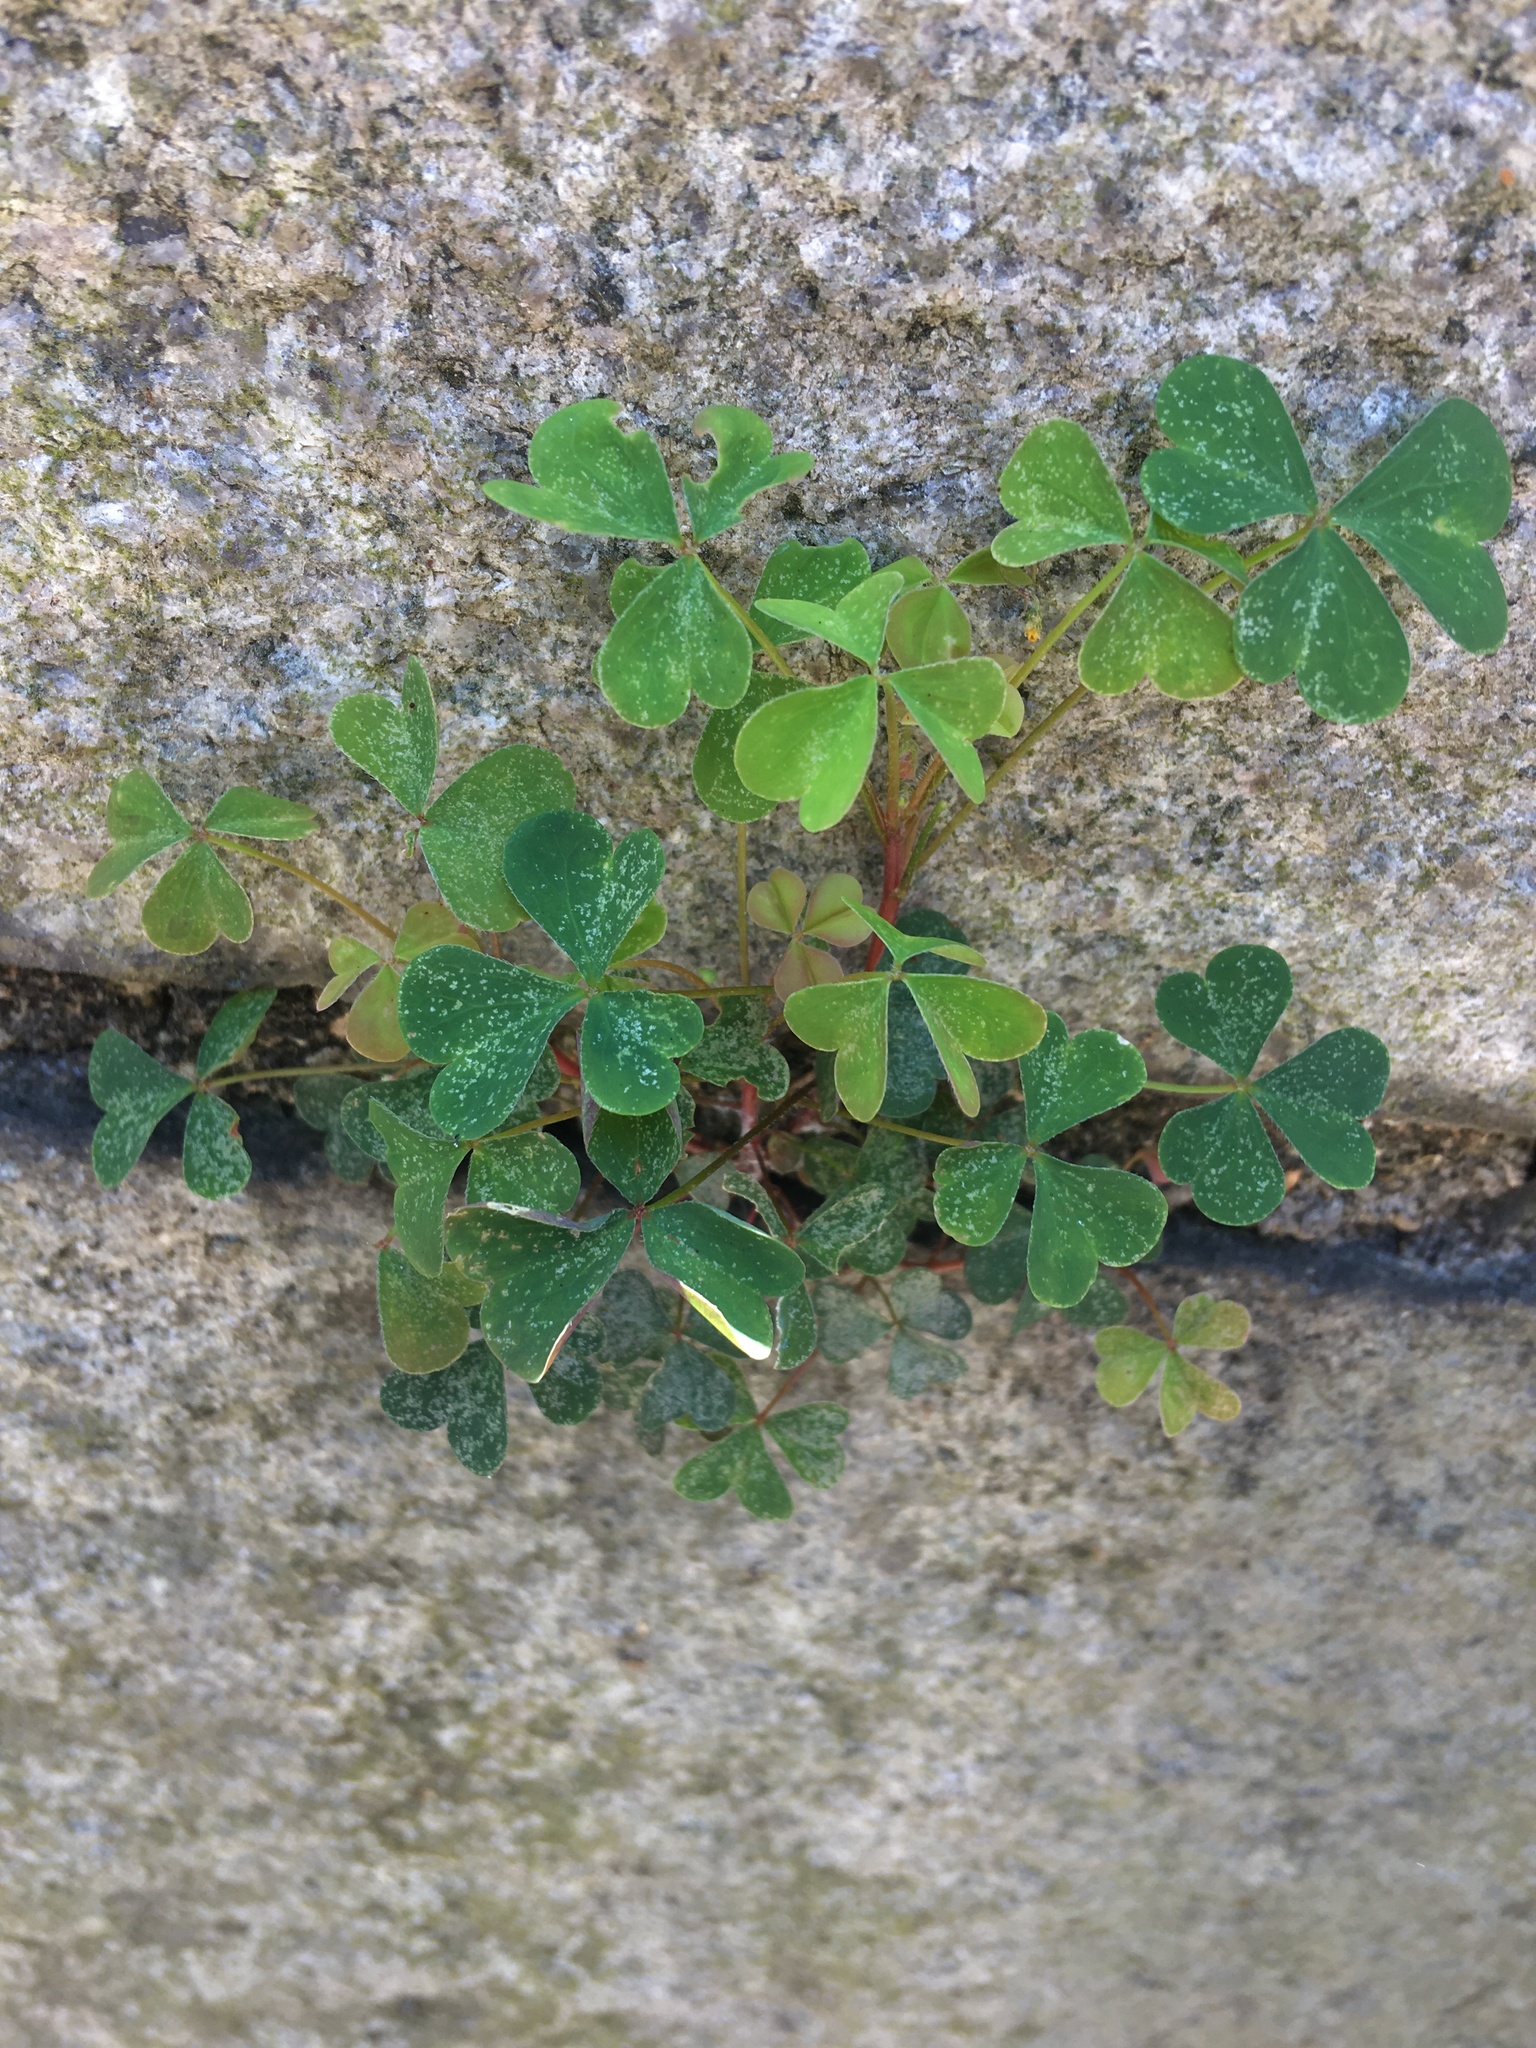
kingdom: Plantae
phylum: Tracheophyta
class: Magnoliopsida
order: Oxalidales
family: Oxalidaceae
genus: Oxalis
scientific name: Oxalis corniculata
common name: Procumbent yellow-sorrel
